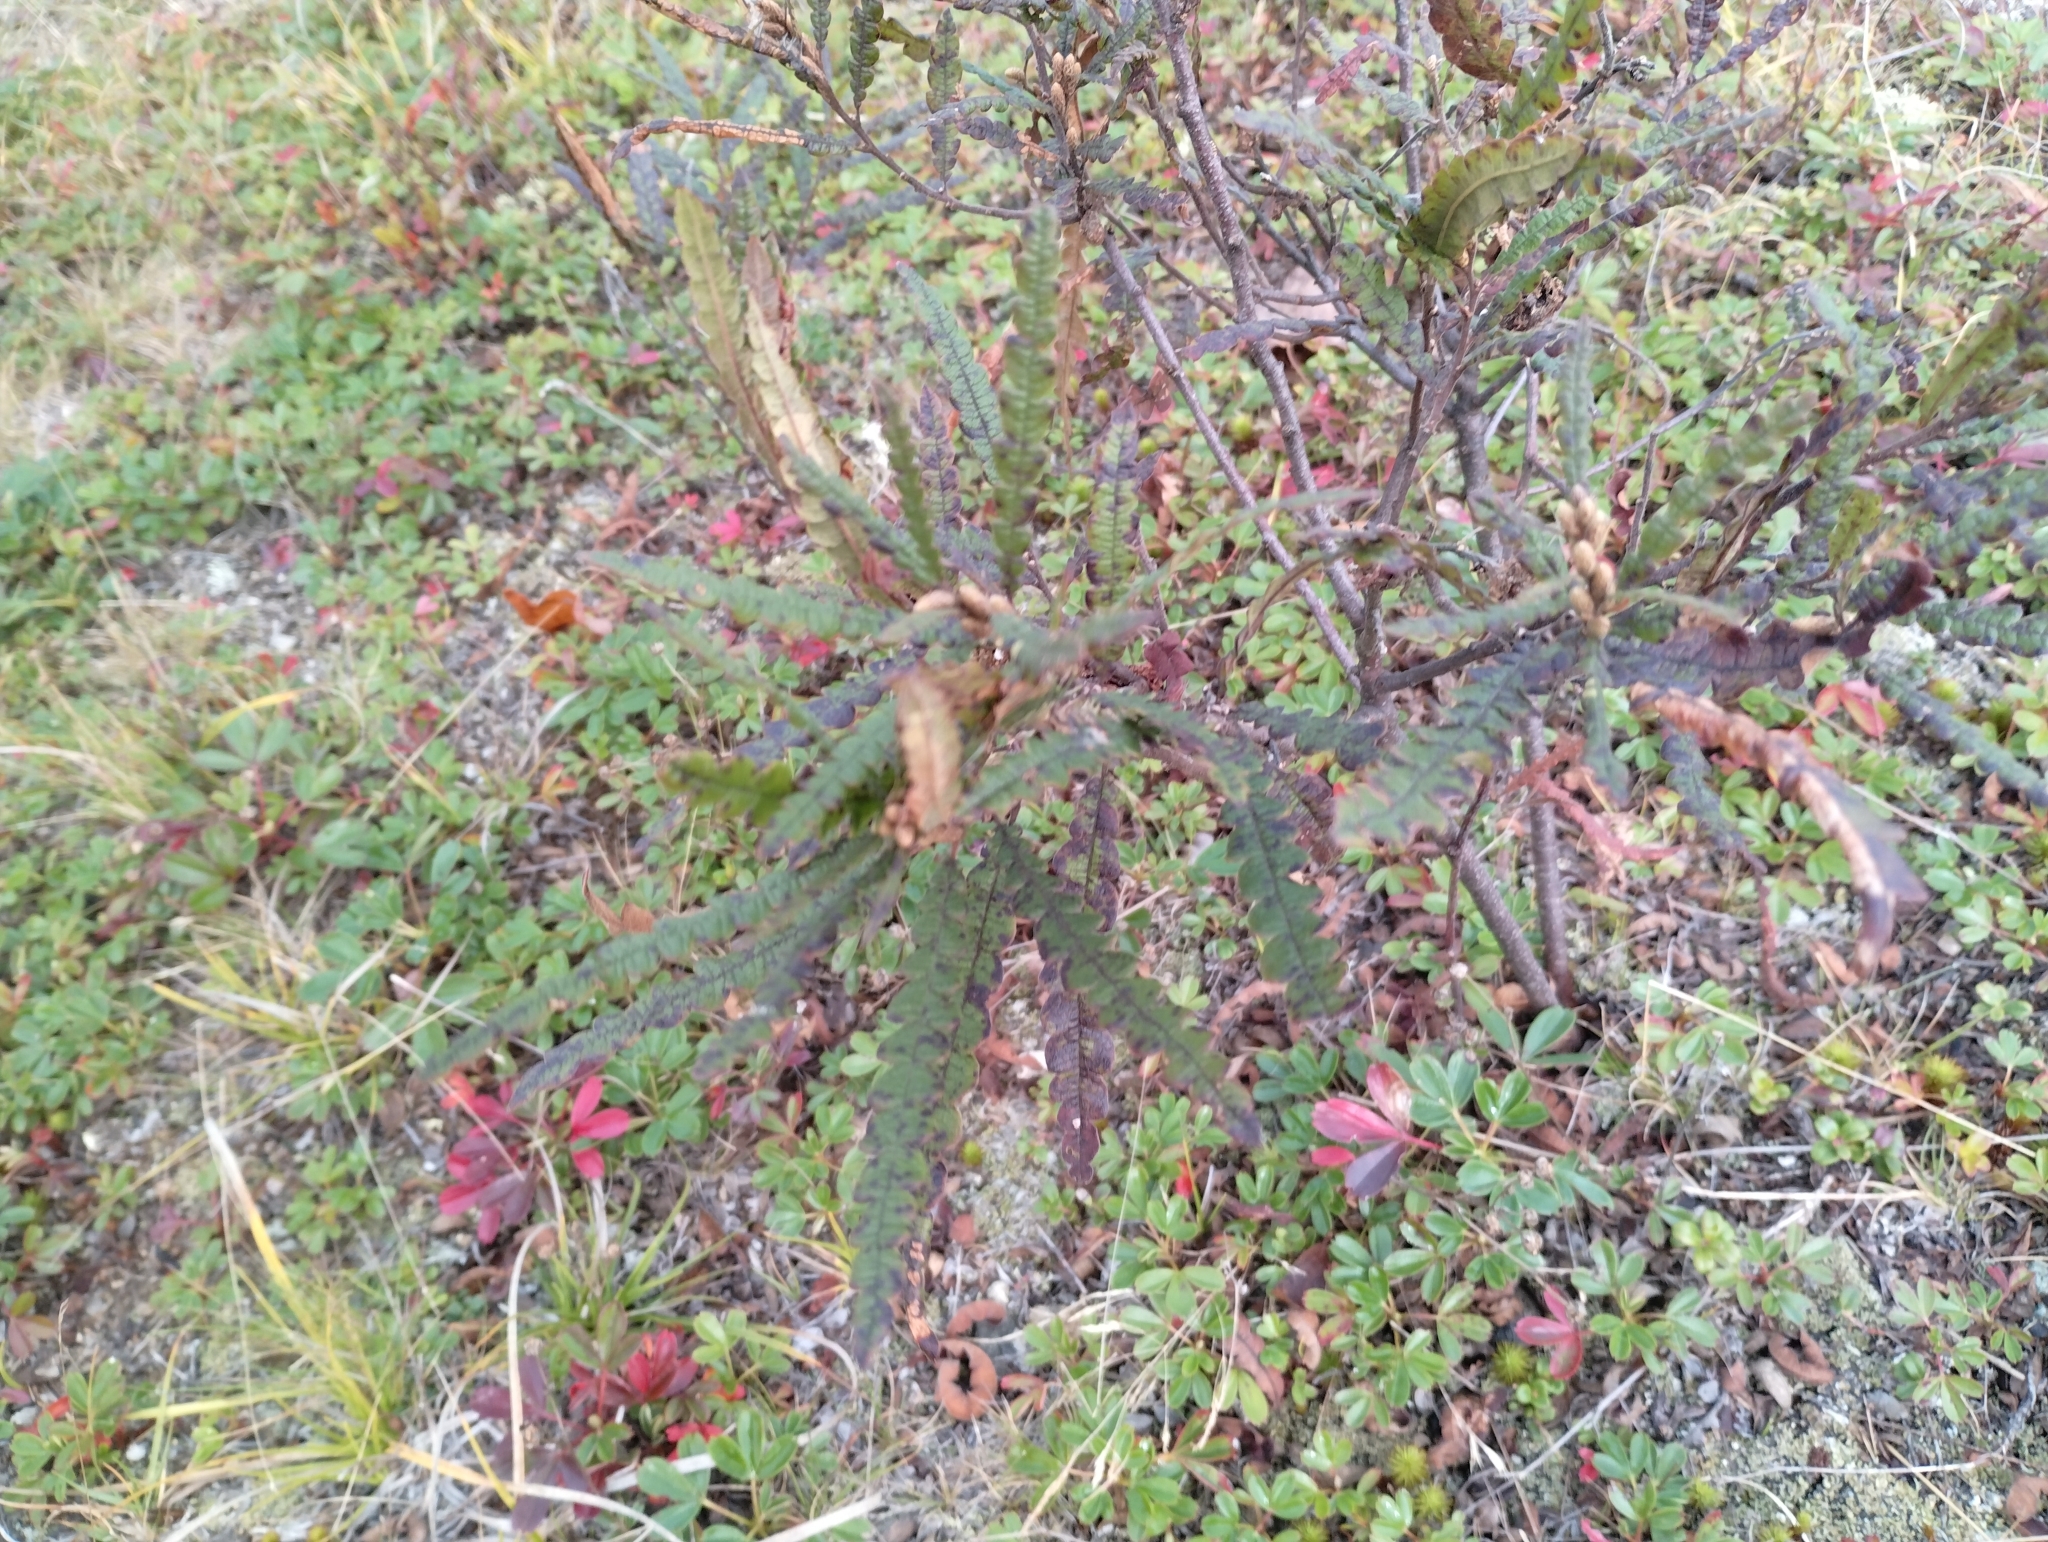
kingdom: Plantae
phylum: Tracheophyta
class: Magnoliopsida
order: Fagales
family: Myricaceae
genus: Comptonia
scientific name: Comptonia peregrina
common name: Sweet-fern
